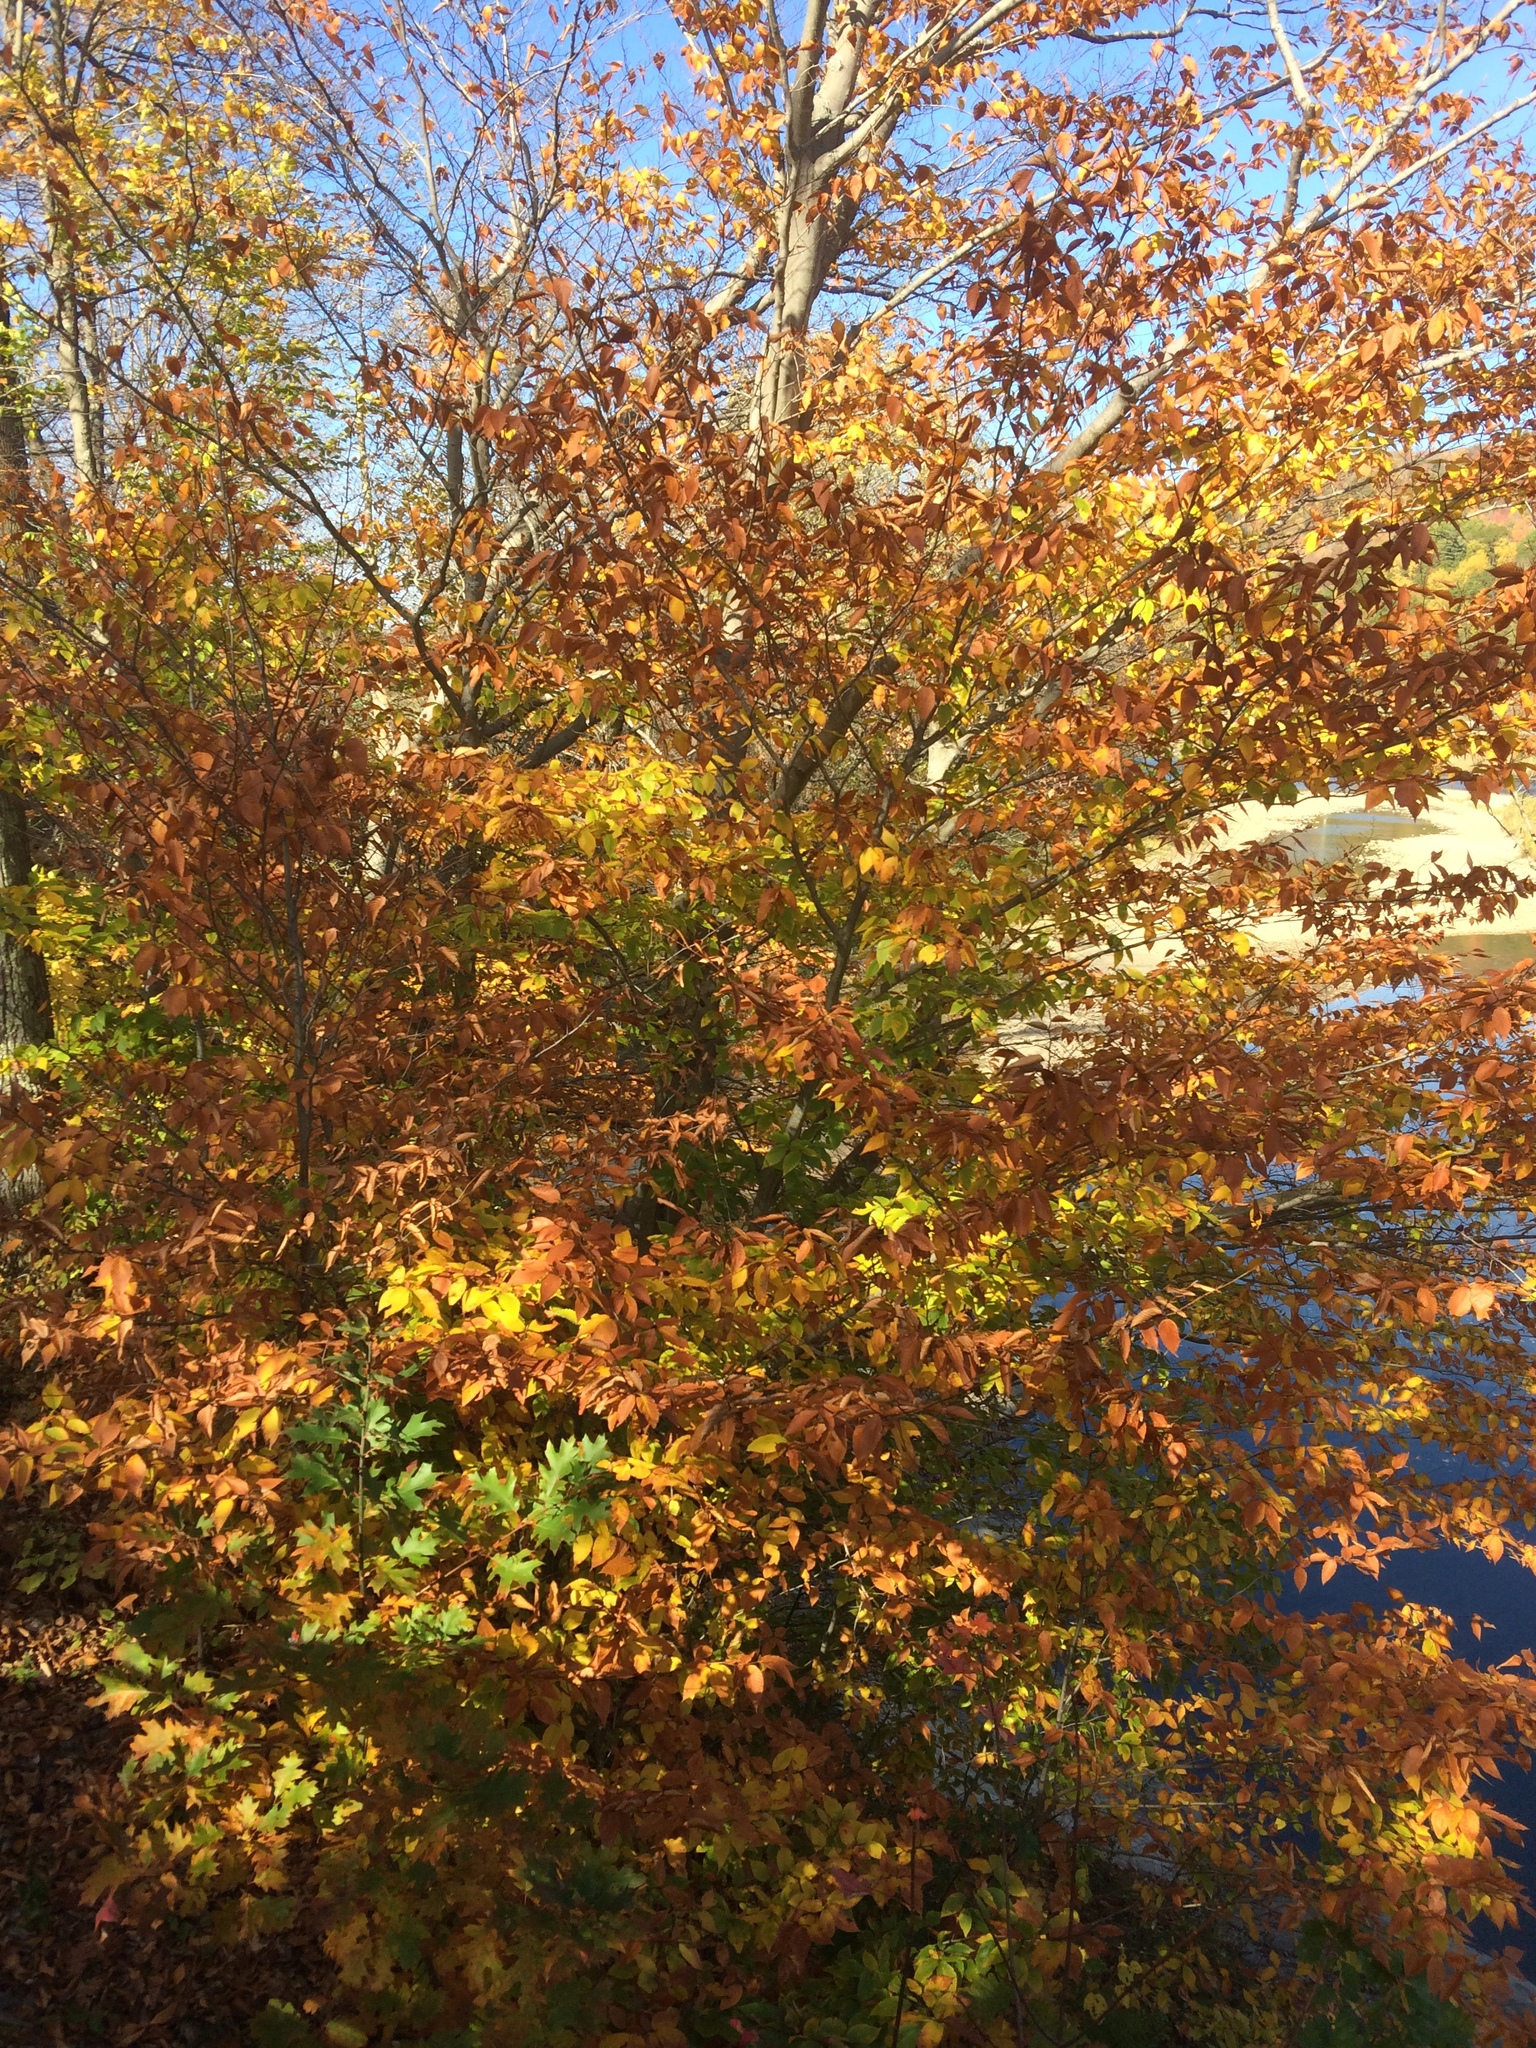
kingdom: Plantae
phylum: Tracheophyta
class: Magnoliopsida
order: Fagales
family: Fagaceae
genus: Fagus
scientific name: Fagus grandifolia
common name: American beech
